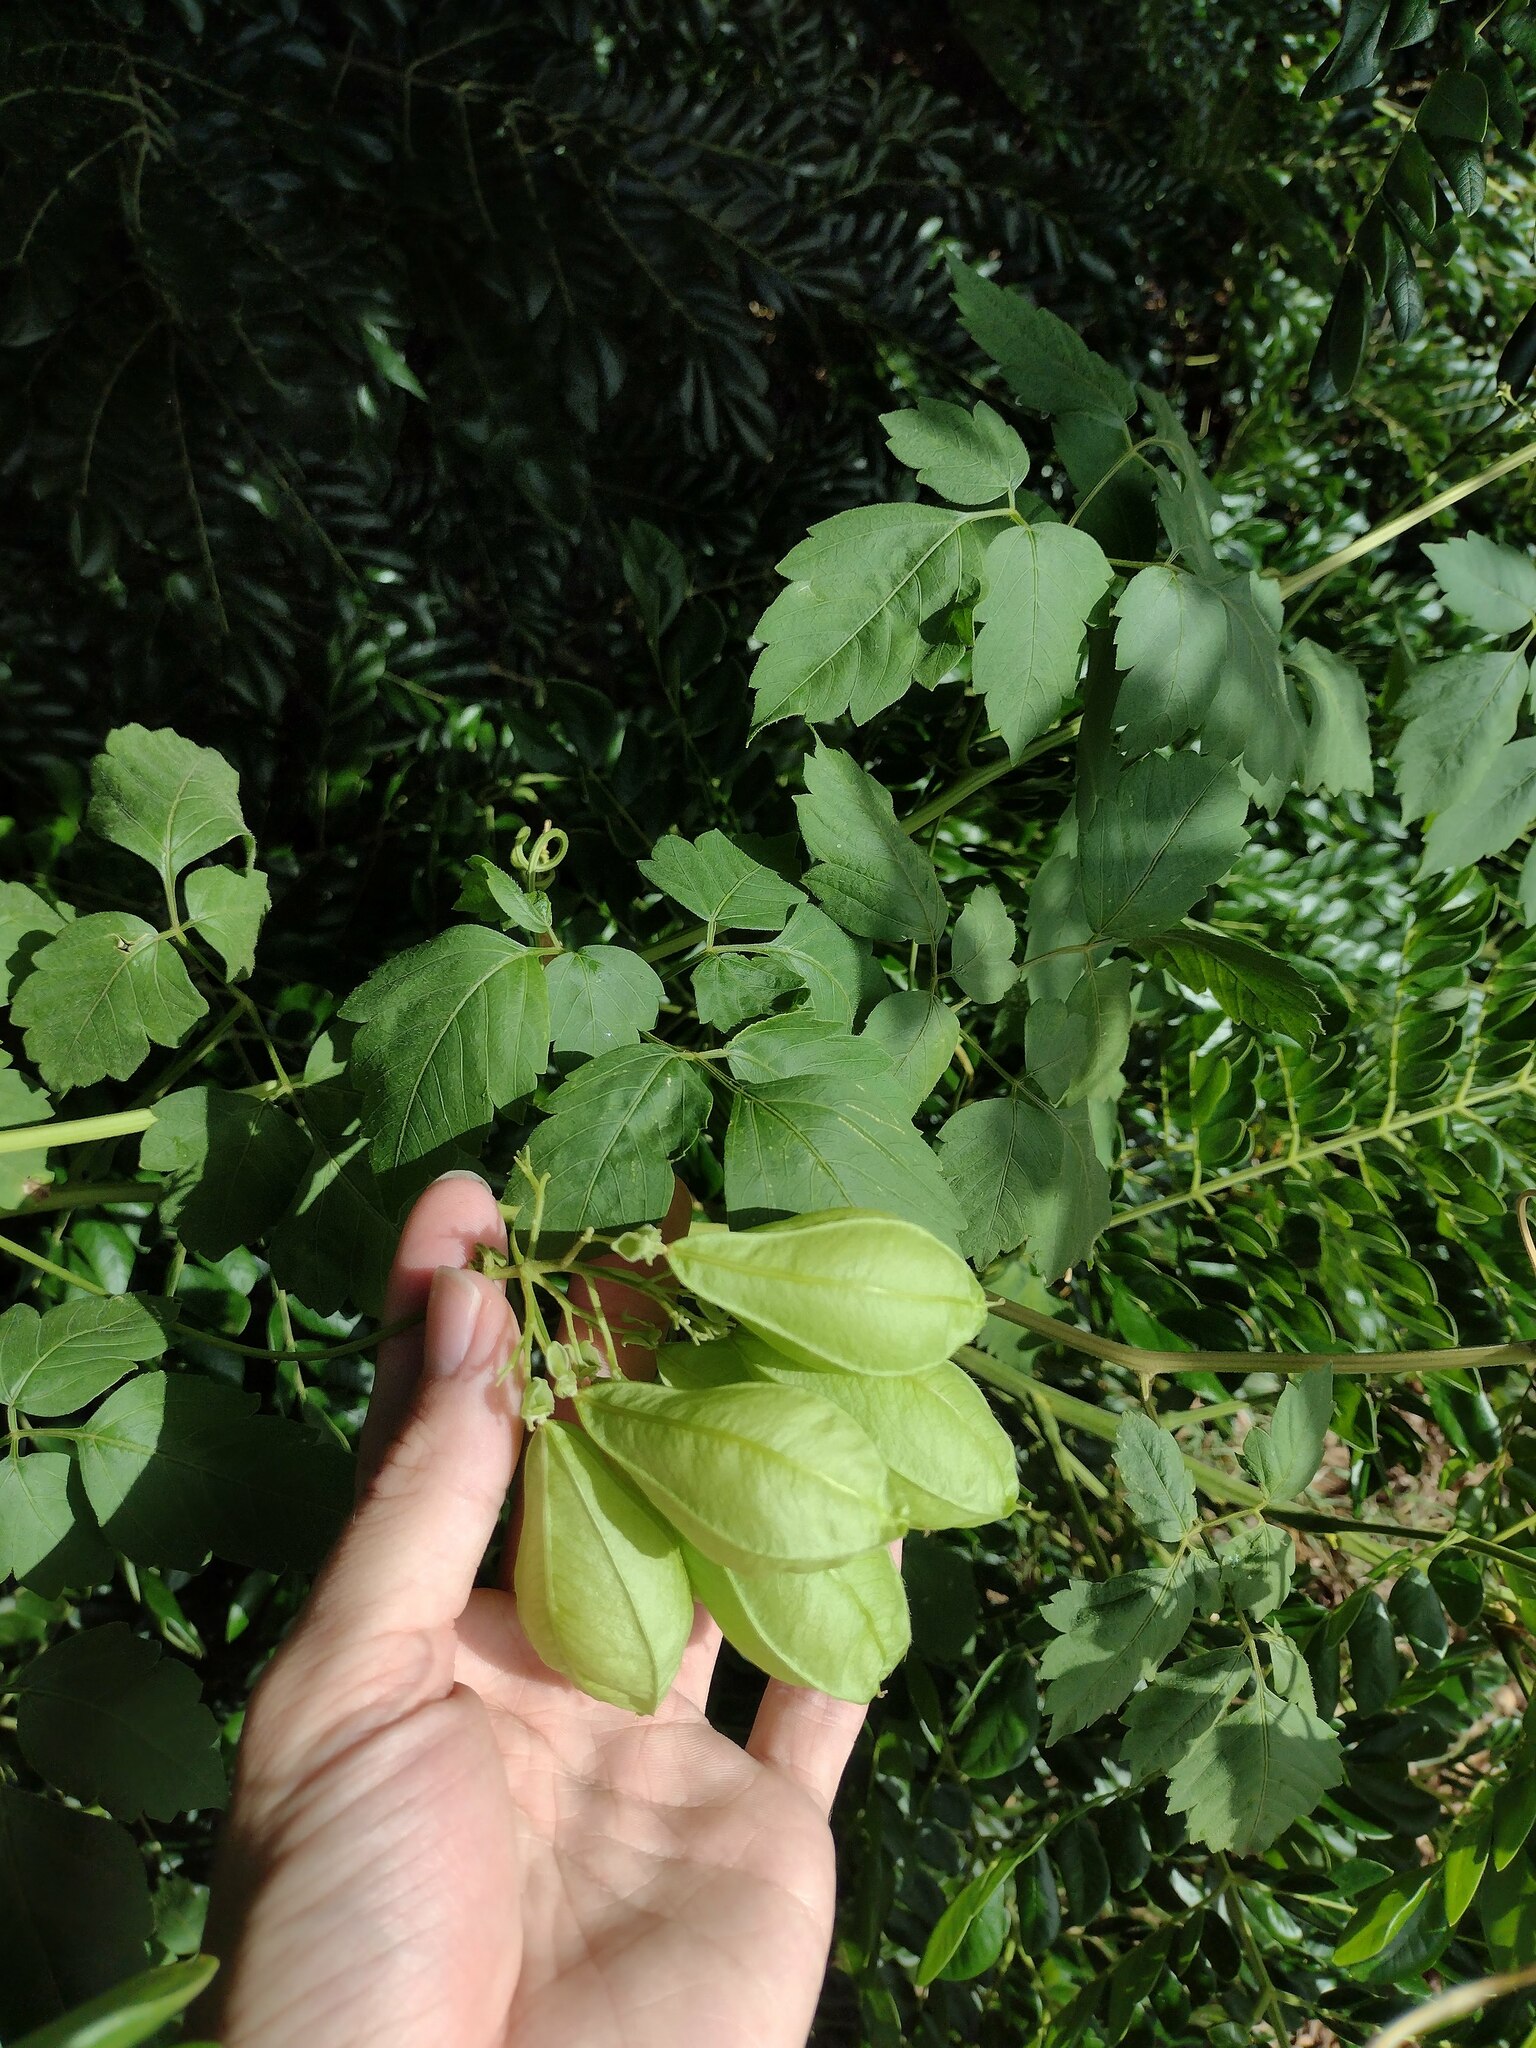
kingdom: Plantae
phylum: Tracheophyta
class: Magnoliopsida
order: Sapindales
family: Sapindaceae
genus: Cardiospermum
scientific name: Cardiospermum grandiflorum
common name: Balloon vine
